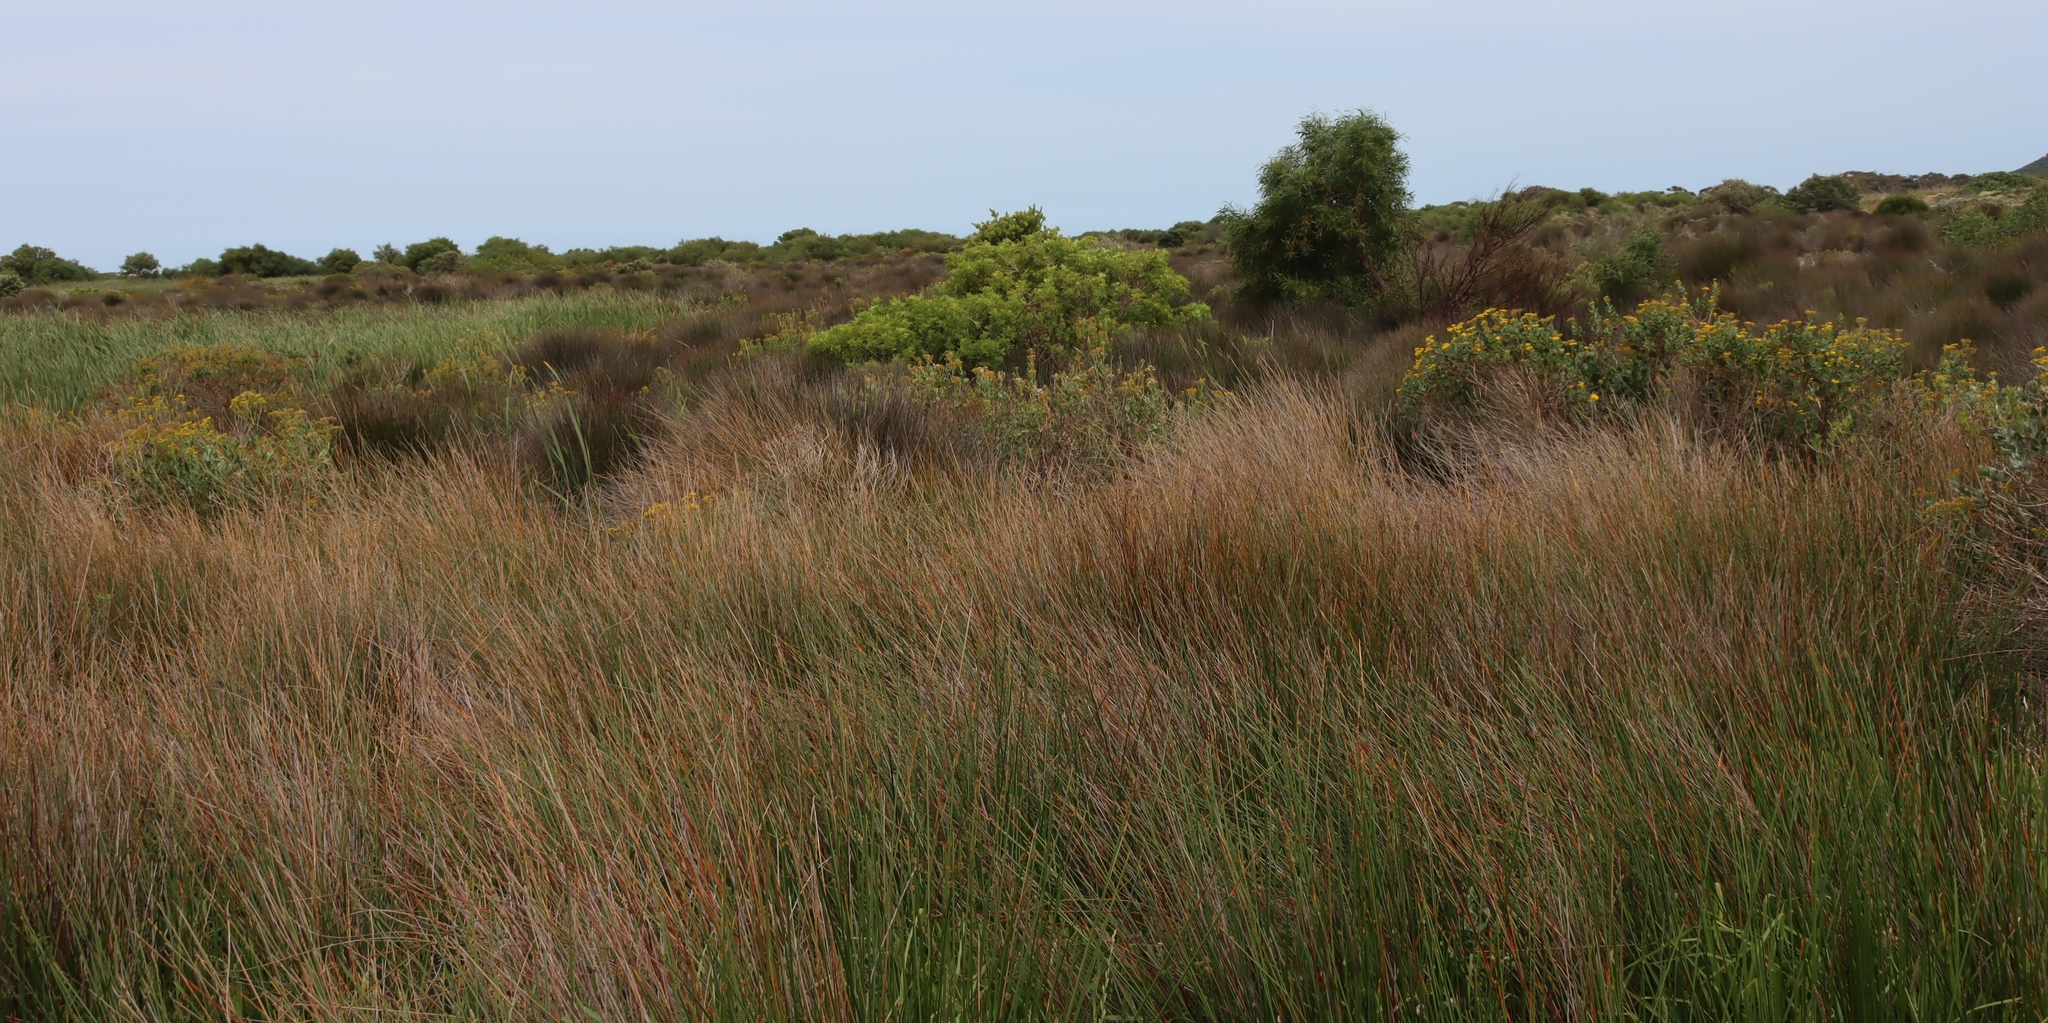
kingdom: Plantae
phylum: Tracheophyta
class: Magnoliopsida
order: Sapindales
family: Anacardiaceae
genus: Schinus
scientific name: Schinus terebinthifolia
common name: Brazilian peppertree
